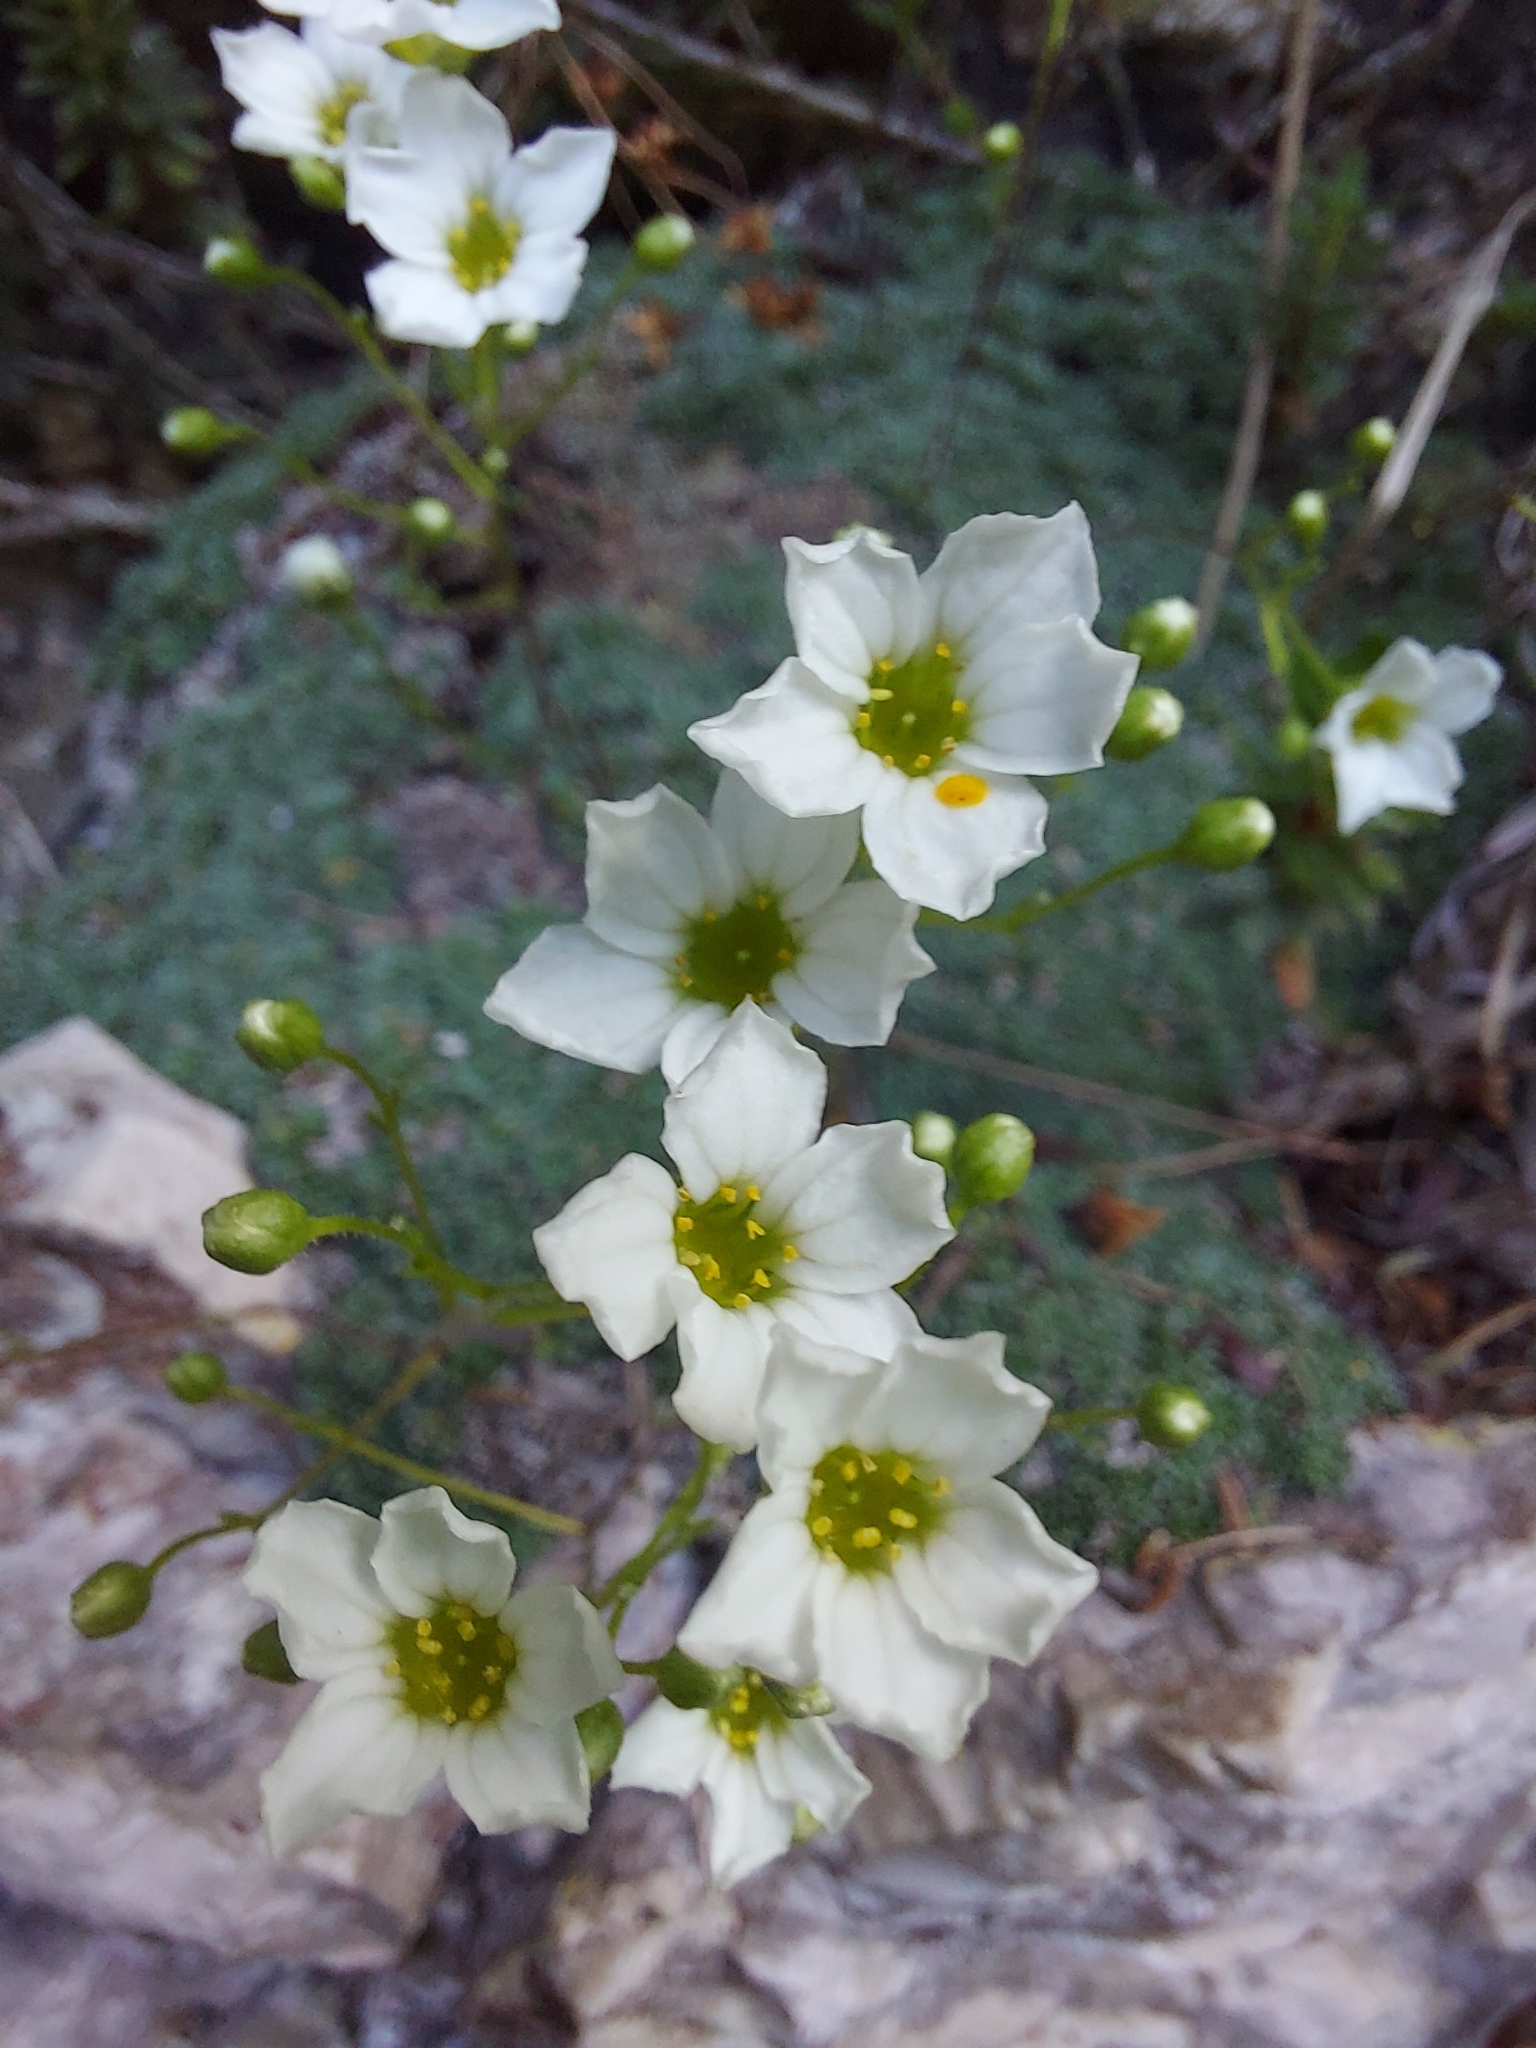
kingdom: Plantae
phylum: Tracheophyta
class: Magnoliopsida
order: Saxifragales
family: Saxifragaceae
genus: Saxifraga
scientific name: Saxifraga squarrosa
